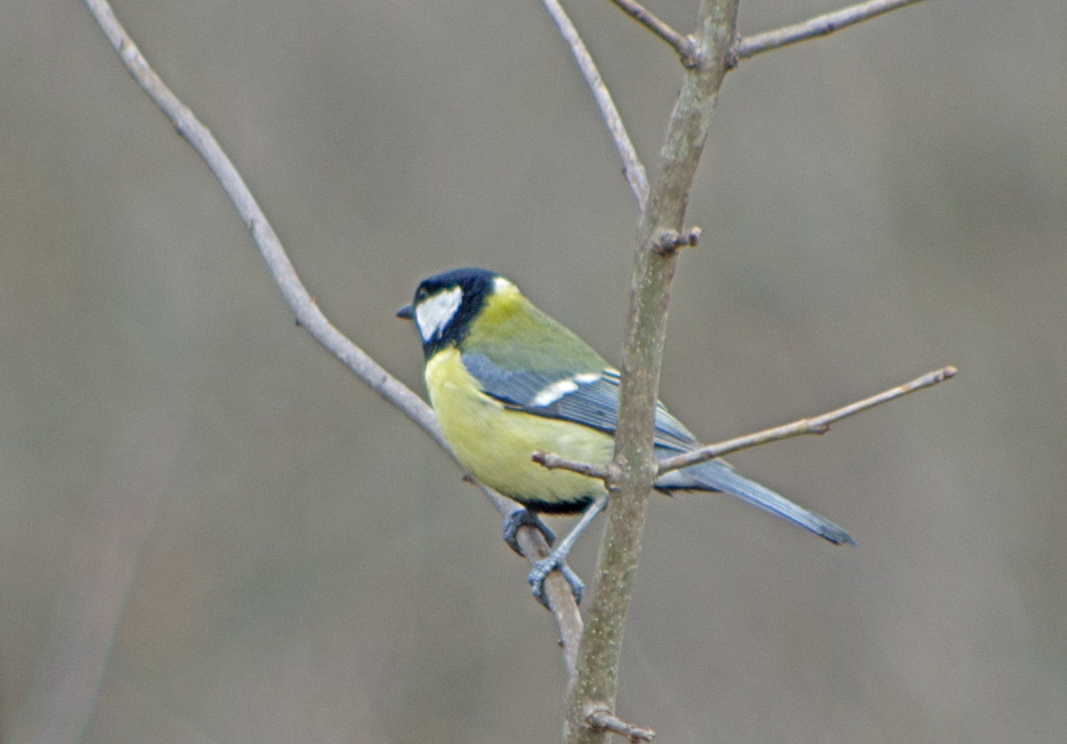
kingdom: Animalia
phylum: Chordata
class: Aves
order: Passeriformes
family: Paridae
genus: Parus
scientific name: Parus major
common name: Great tit
